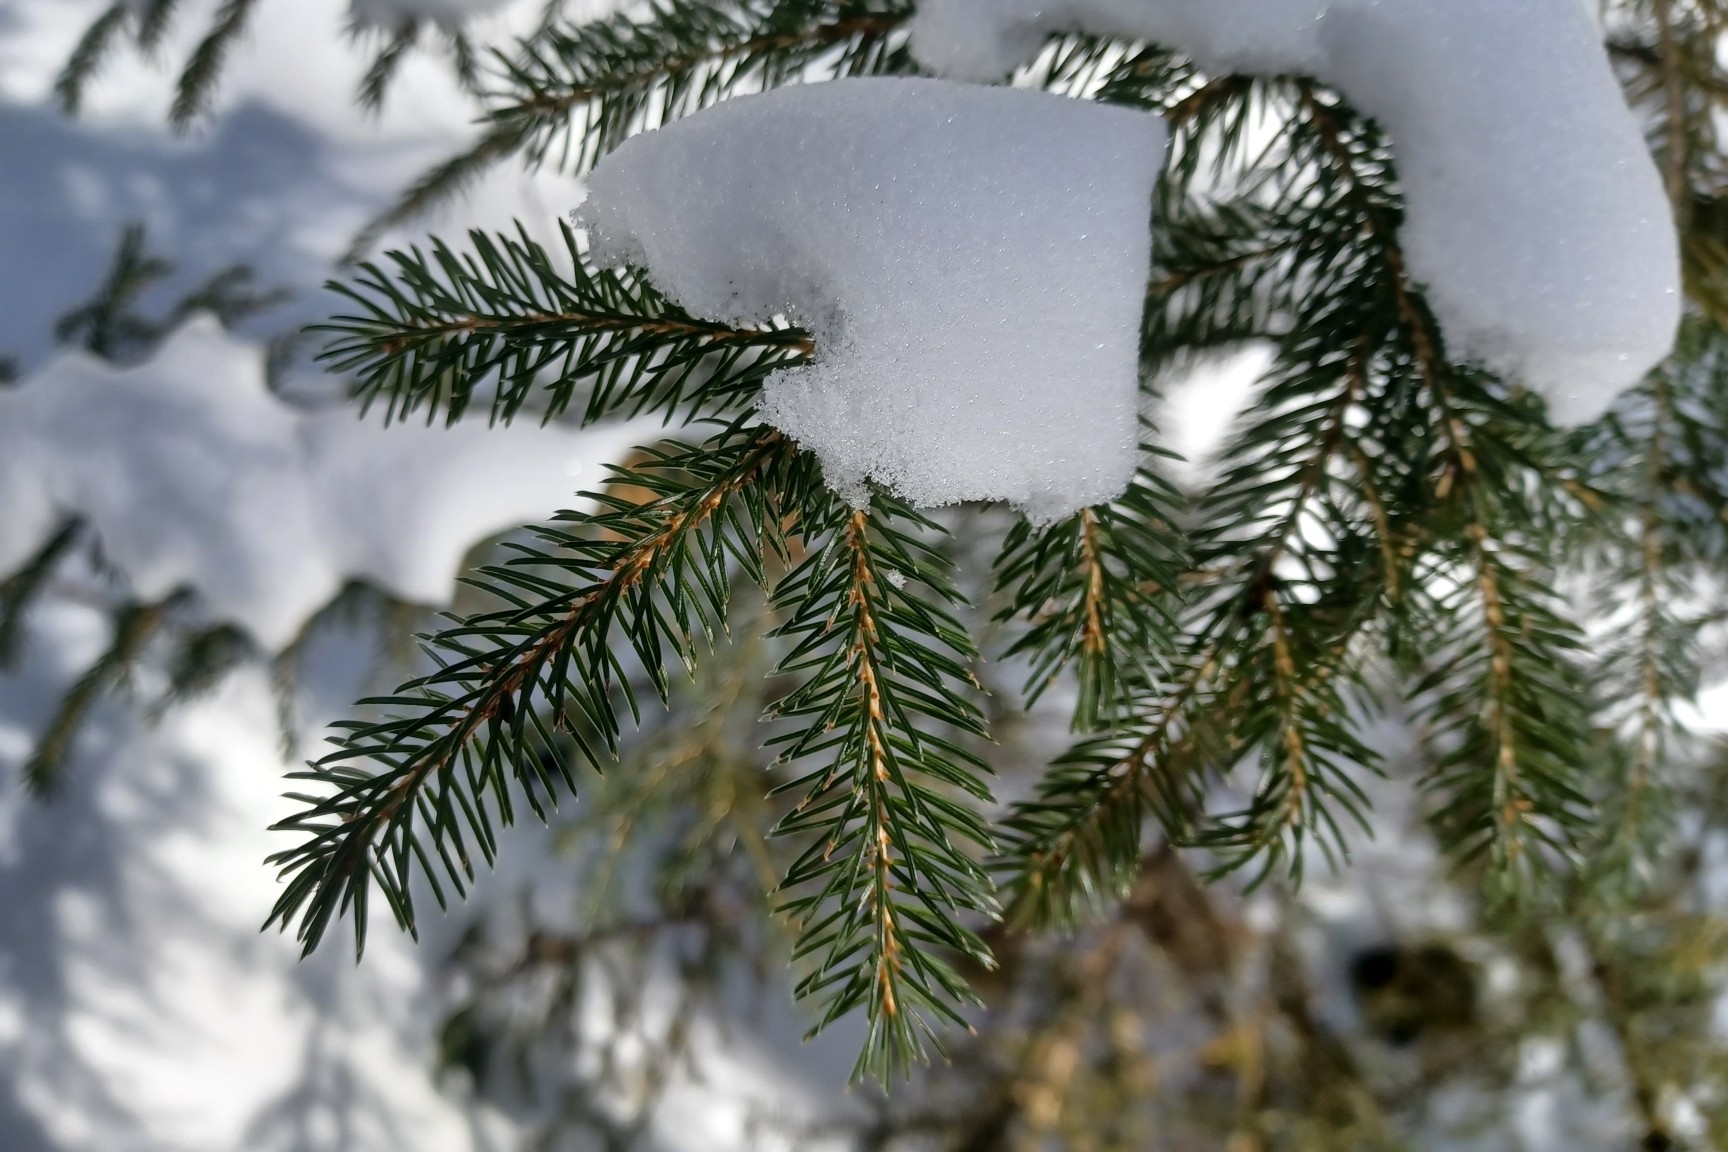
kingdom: Plantae
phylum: Tracheophyta
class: Pinopsida
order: Pinales
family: Pinaceae
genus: Picea
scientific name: Picea rubens
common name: Red spruce
